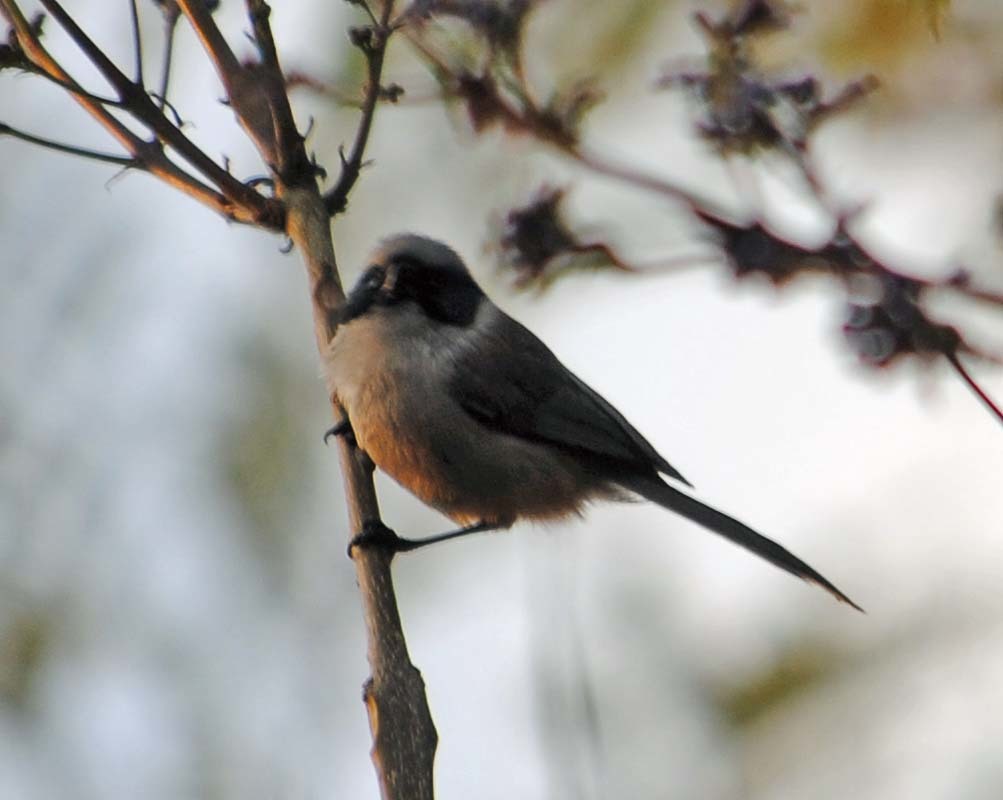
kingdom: Animalia
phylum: Chordata
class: Aves
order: Passeriformes
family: Aegithalidae
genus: Psaltriparus
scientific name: Psaltriparus minimus
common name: American bushtit
